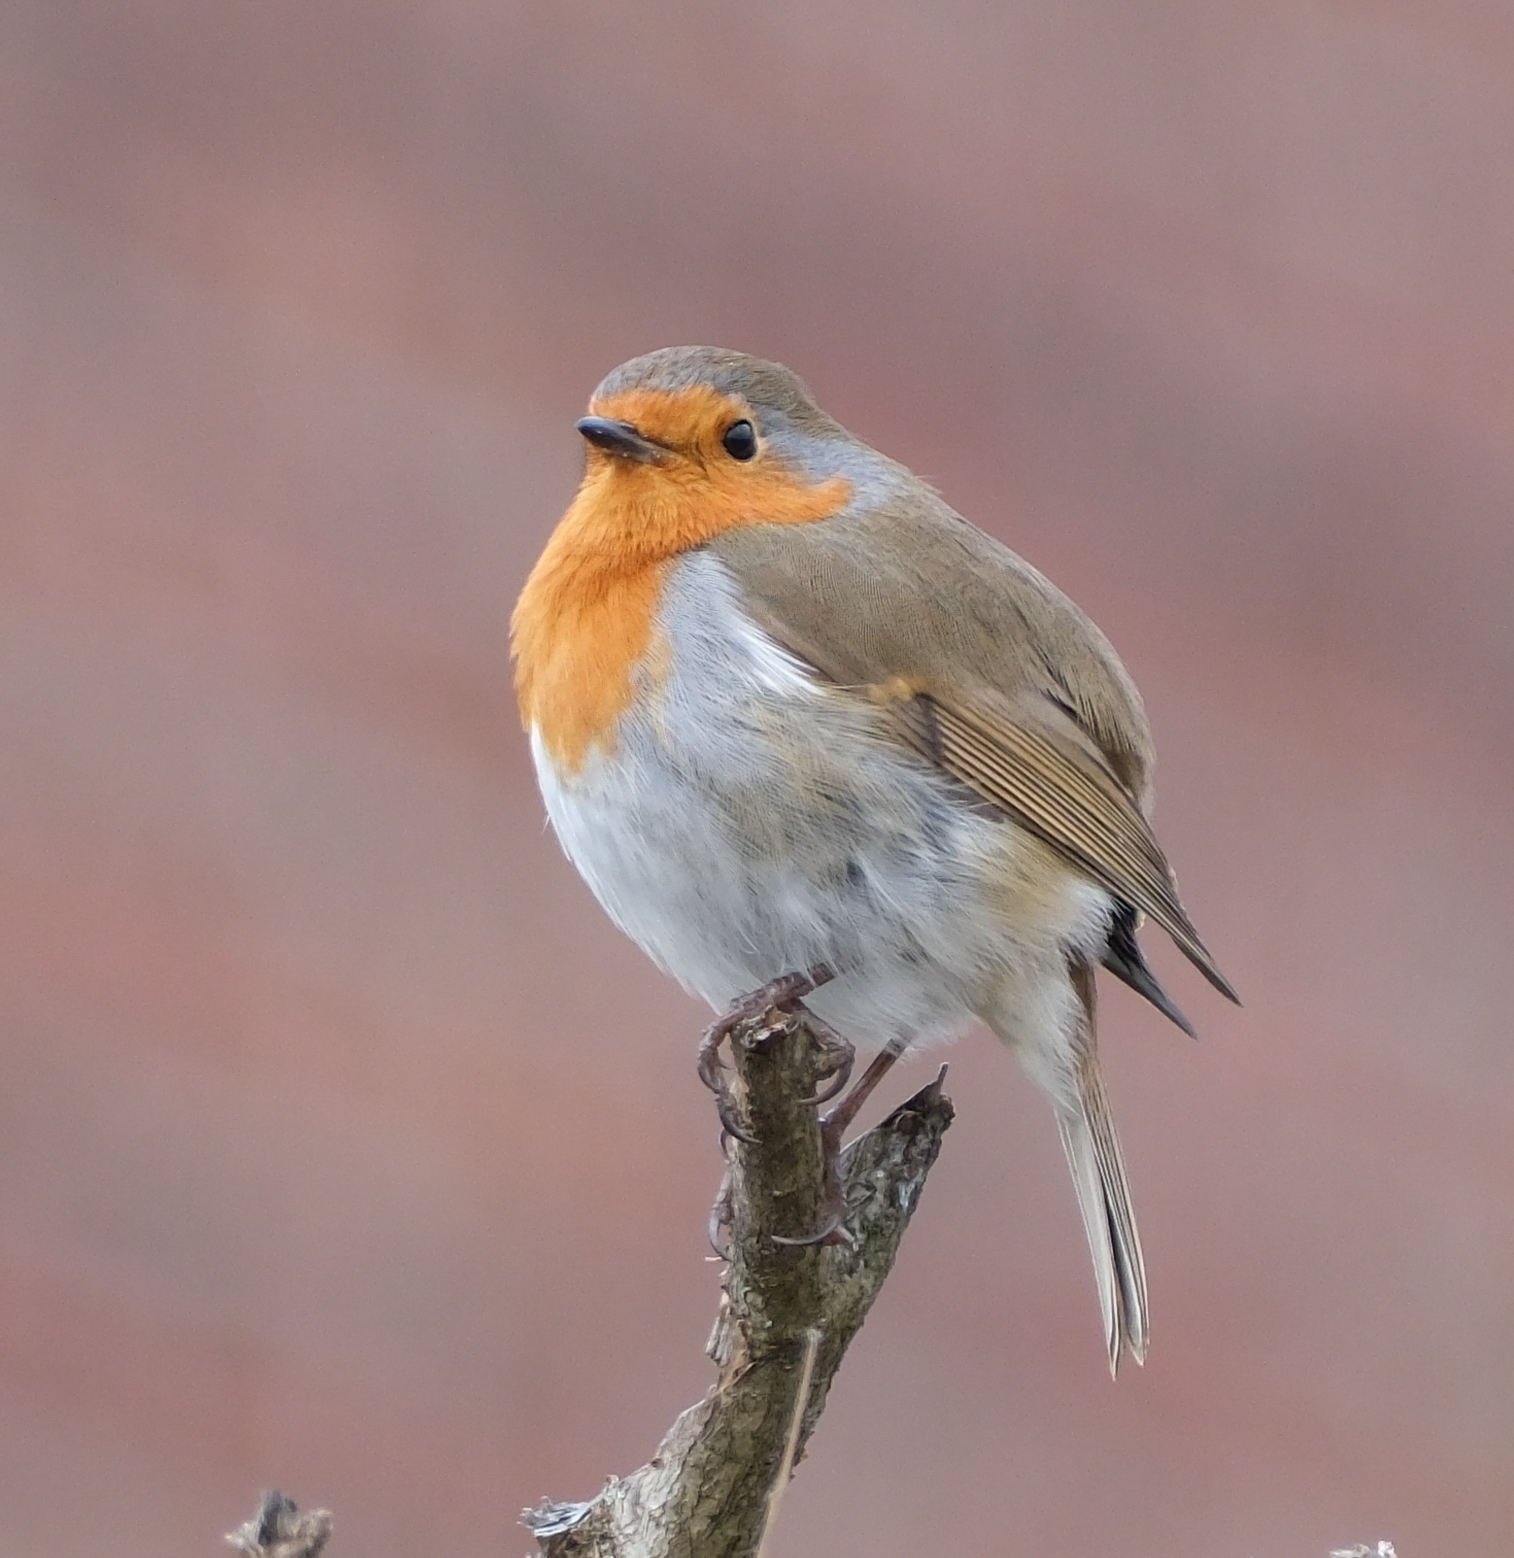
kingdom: Animalia
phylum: Chordata
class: Aves
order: Passeriformes
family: Muscicapidae
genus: Erithacus
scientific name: Erithacus rubecula
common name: European robin
